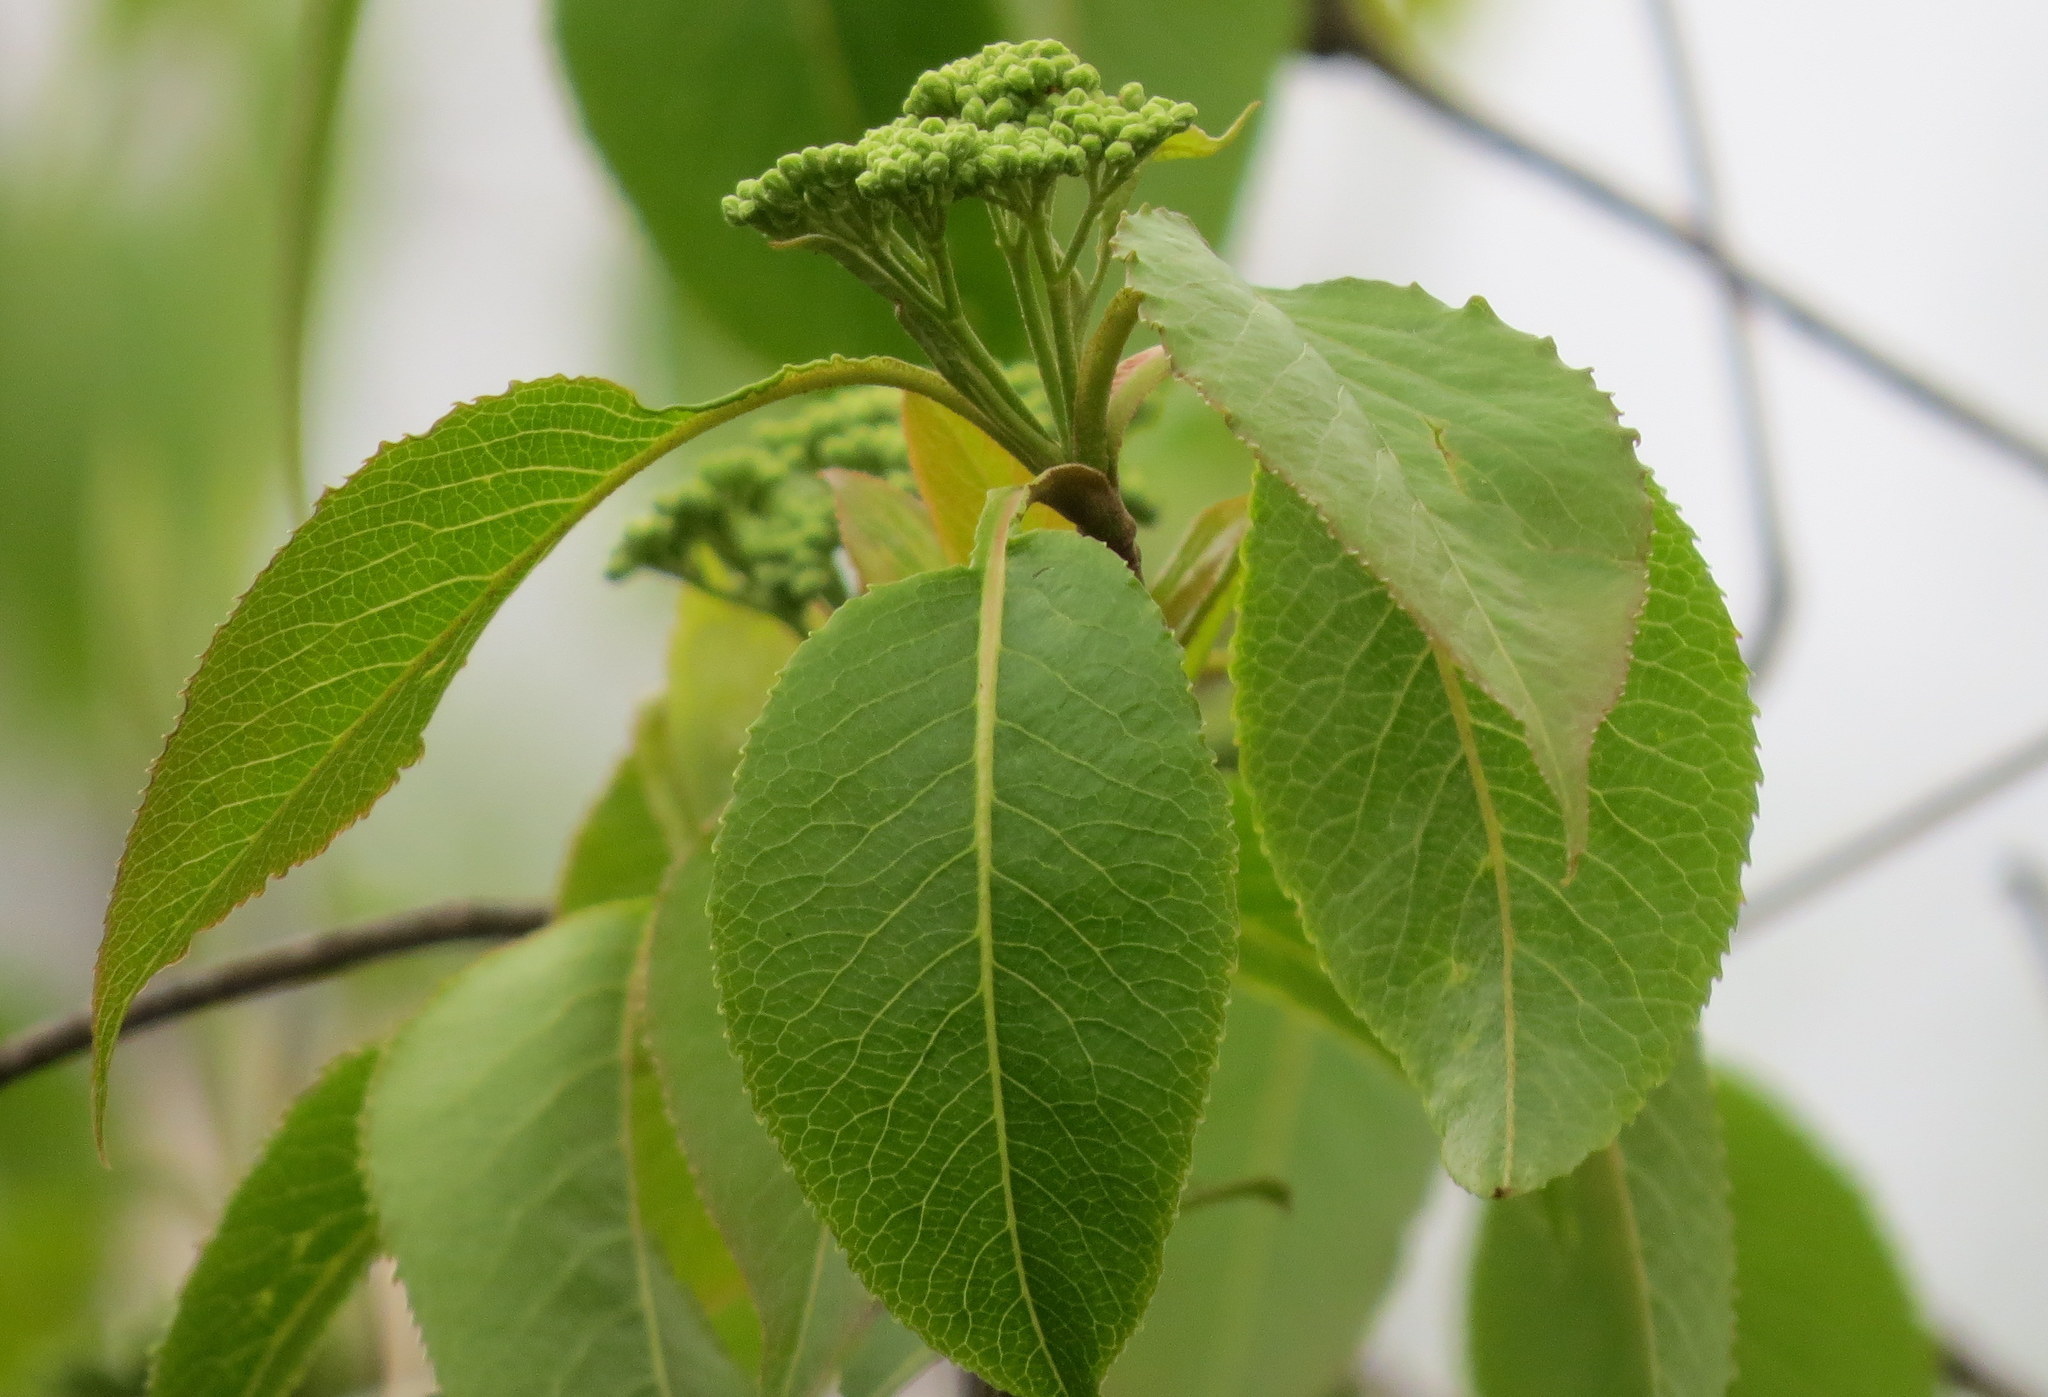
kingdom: Plantae
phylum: Tracheophyta
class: Magnoliopsida
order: Dipsacales
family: Viburnaceae
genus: Viburnum
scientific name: Viburnum lentago
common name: Black haw
